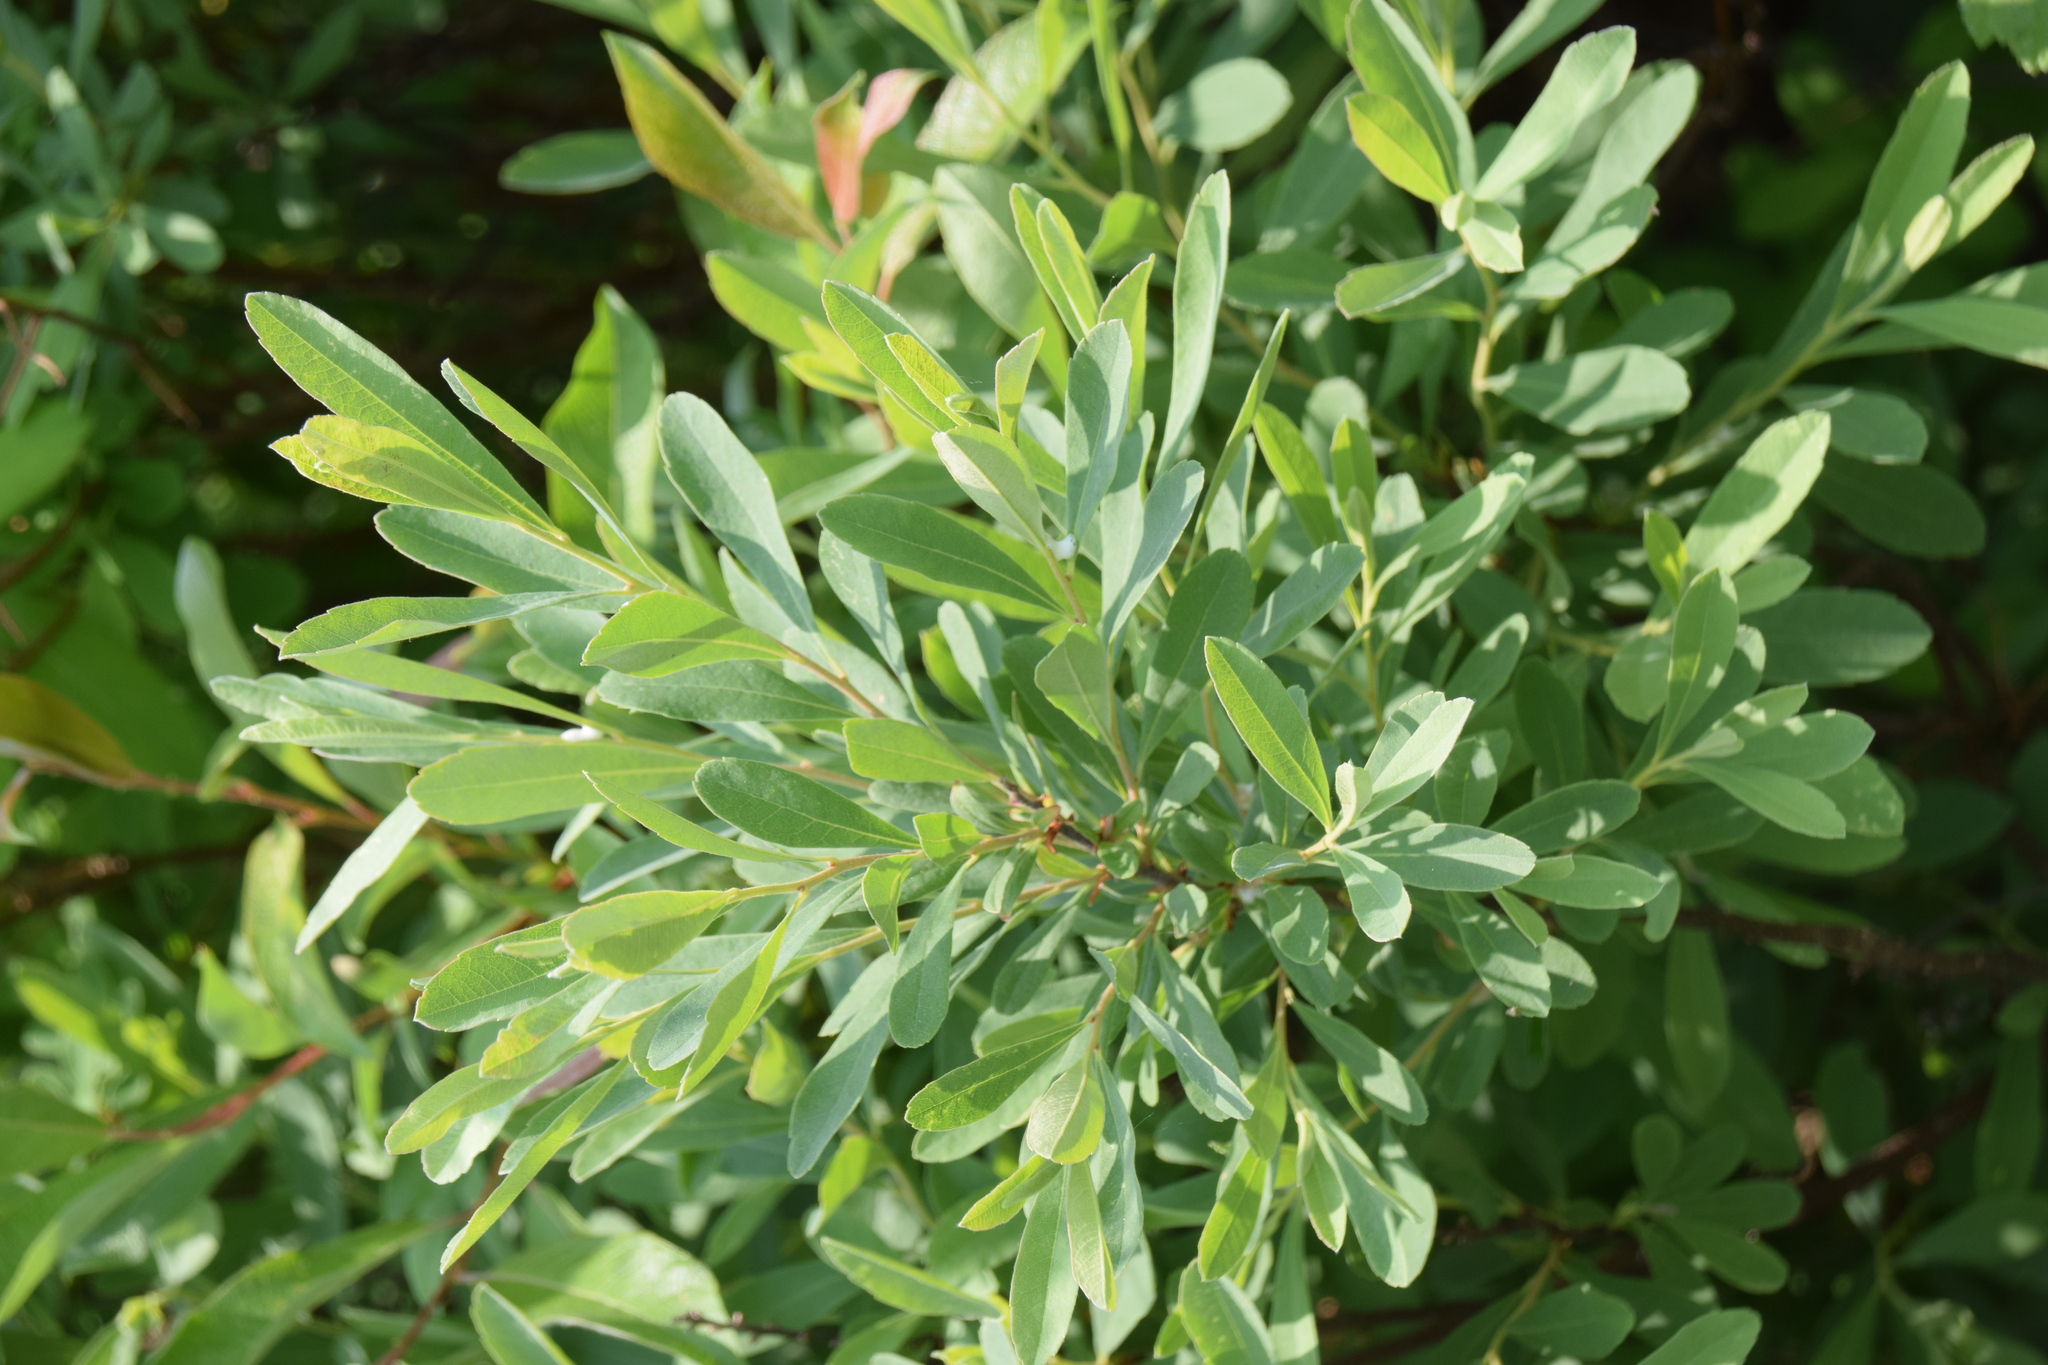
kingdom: Plantae
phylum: Tracheophyta
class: Magnoliopsida
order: Fagales
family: Myricaceae
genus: Myrica
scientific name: Myrica gale
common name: Sweet gale
